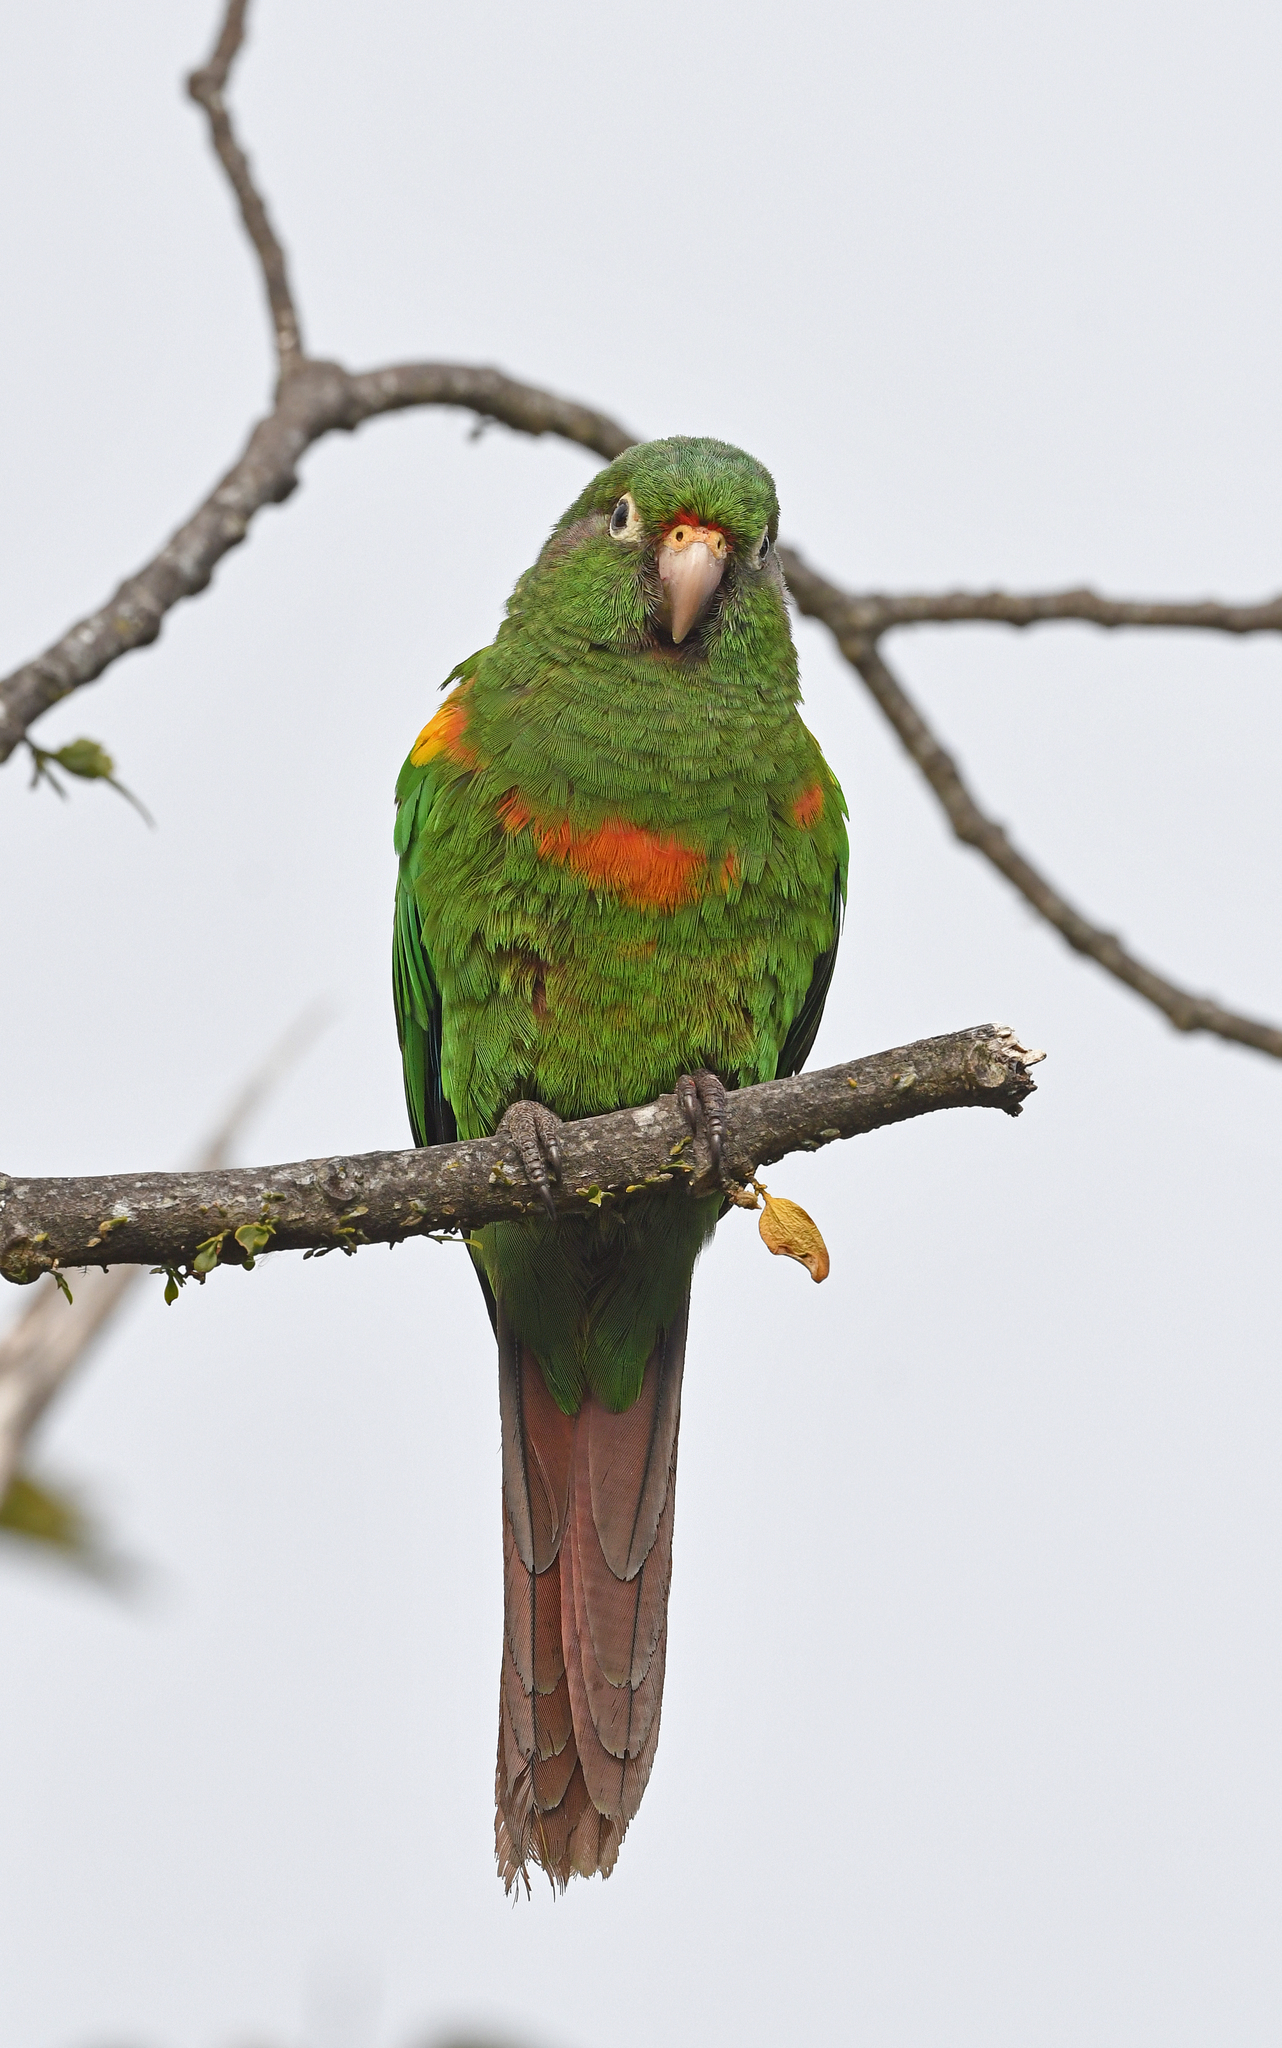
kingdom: Animalia
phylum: Chordata
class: Aves
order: Psittaciformes
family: Psittacidae
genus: Pyrrhura
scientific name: Pyrrhura viridicata
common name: Santa marta parakeet
